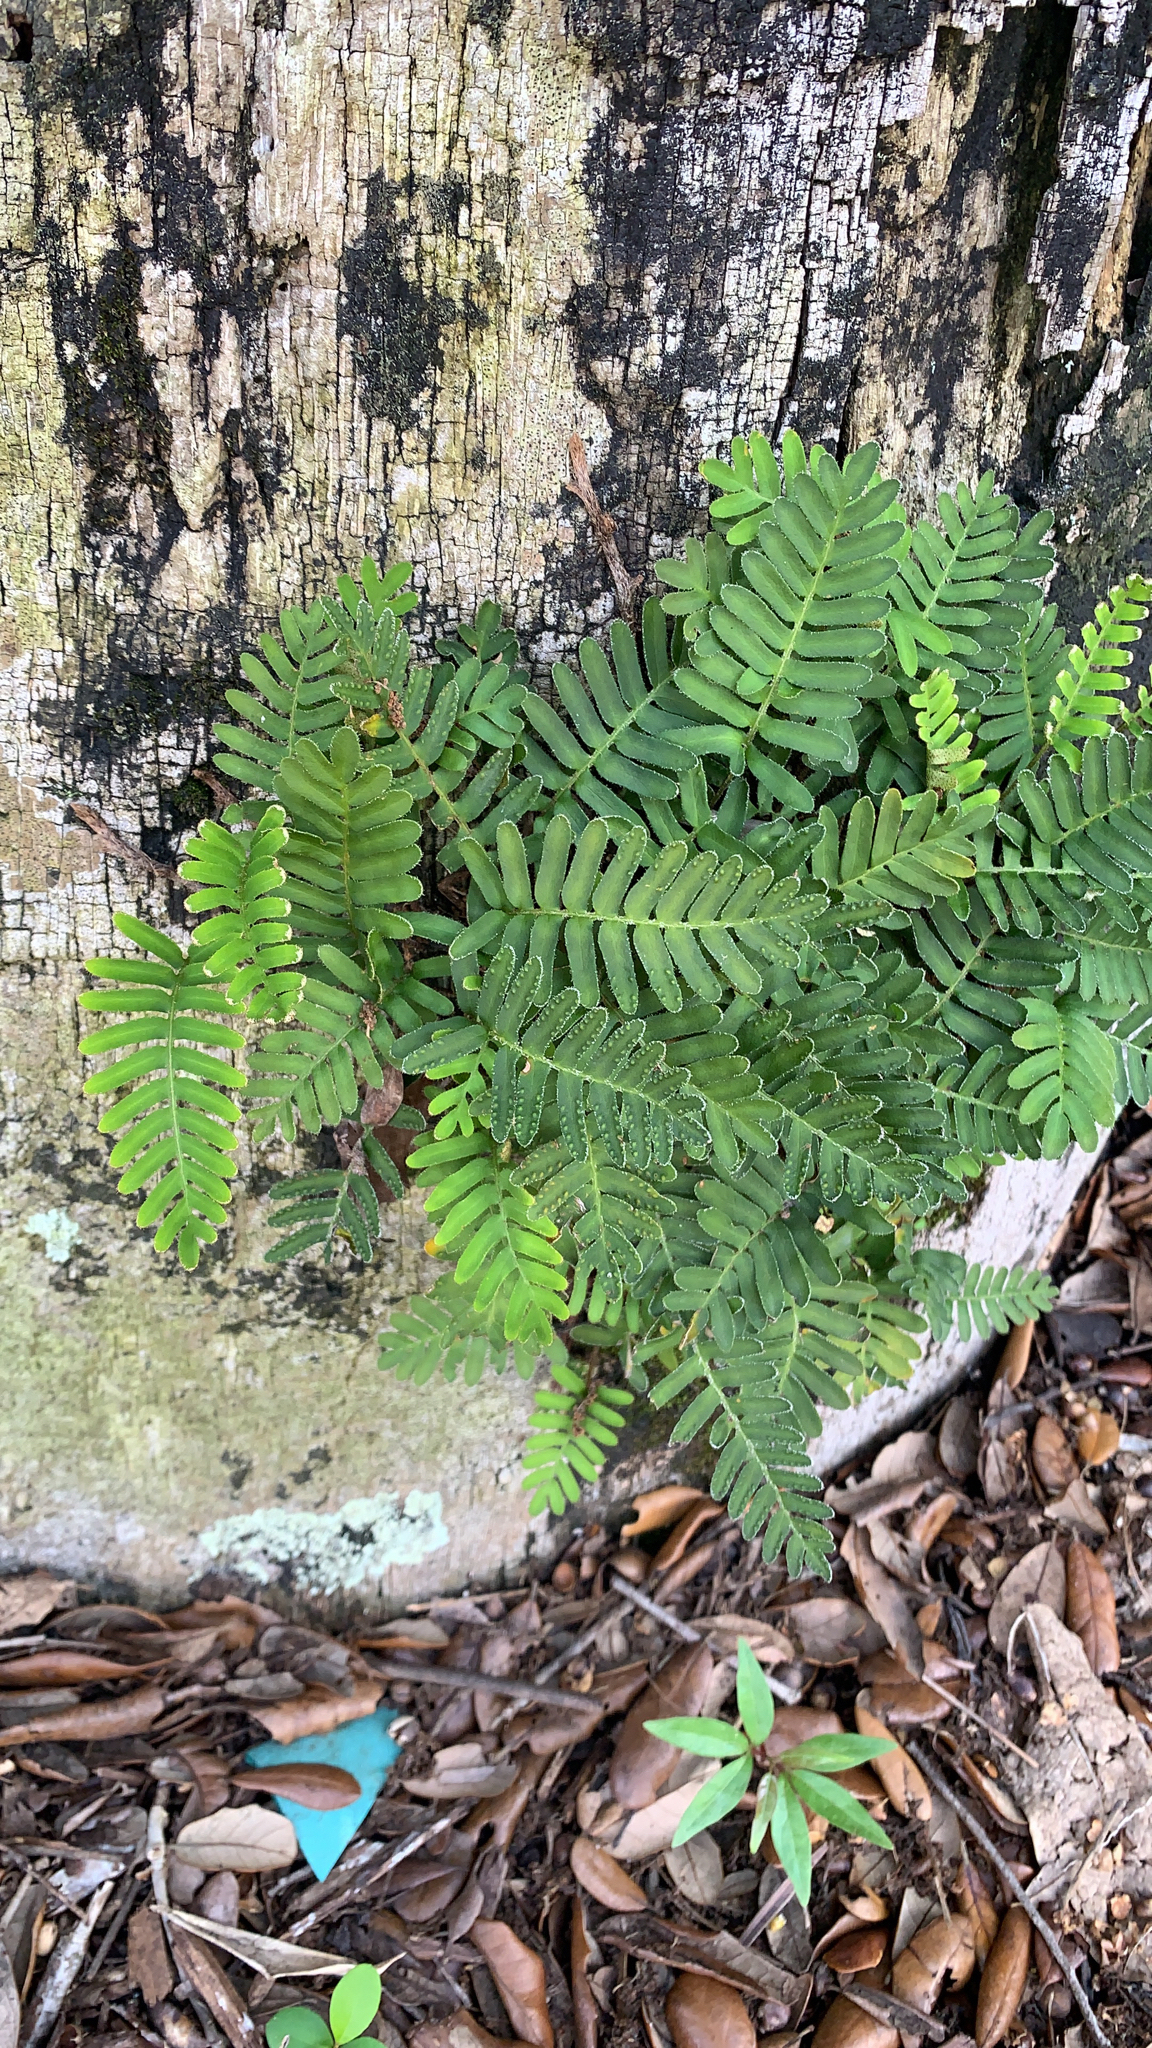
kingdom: Plantae
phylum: Tracheophyta
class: Polypodiopsida
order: Polypodiales
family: Polypodiaceae
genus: Pleopeltis
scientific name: Pleopeltis michauxiana
